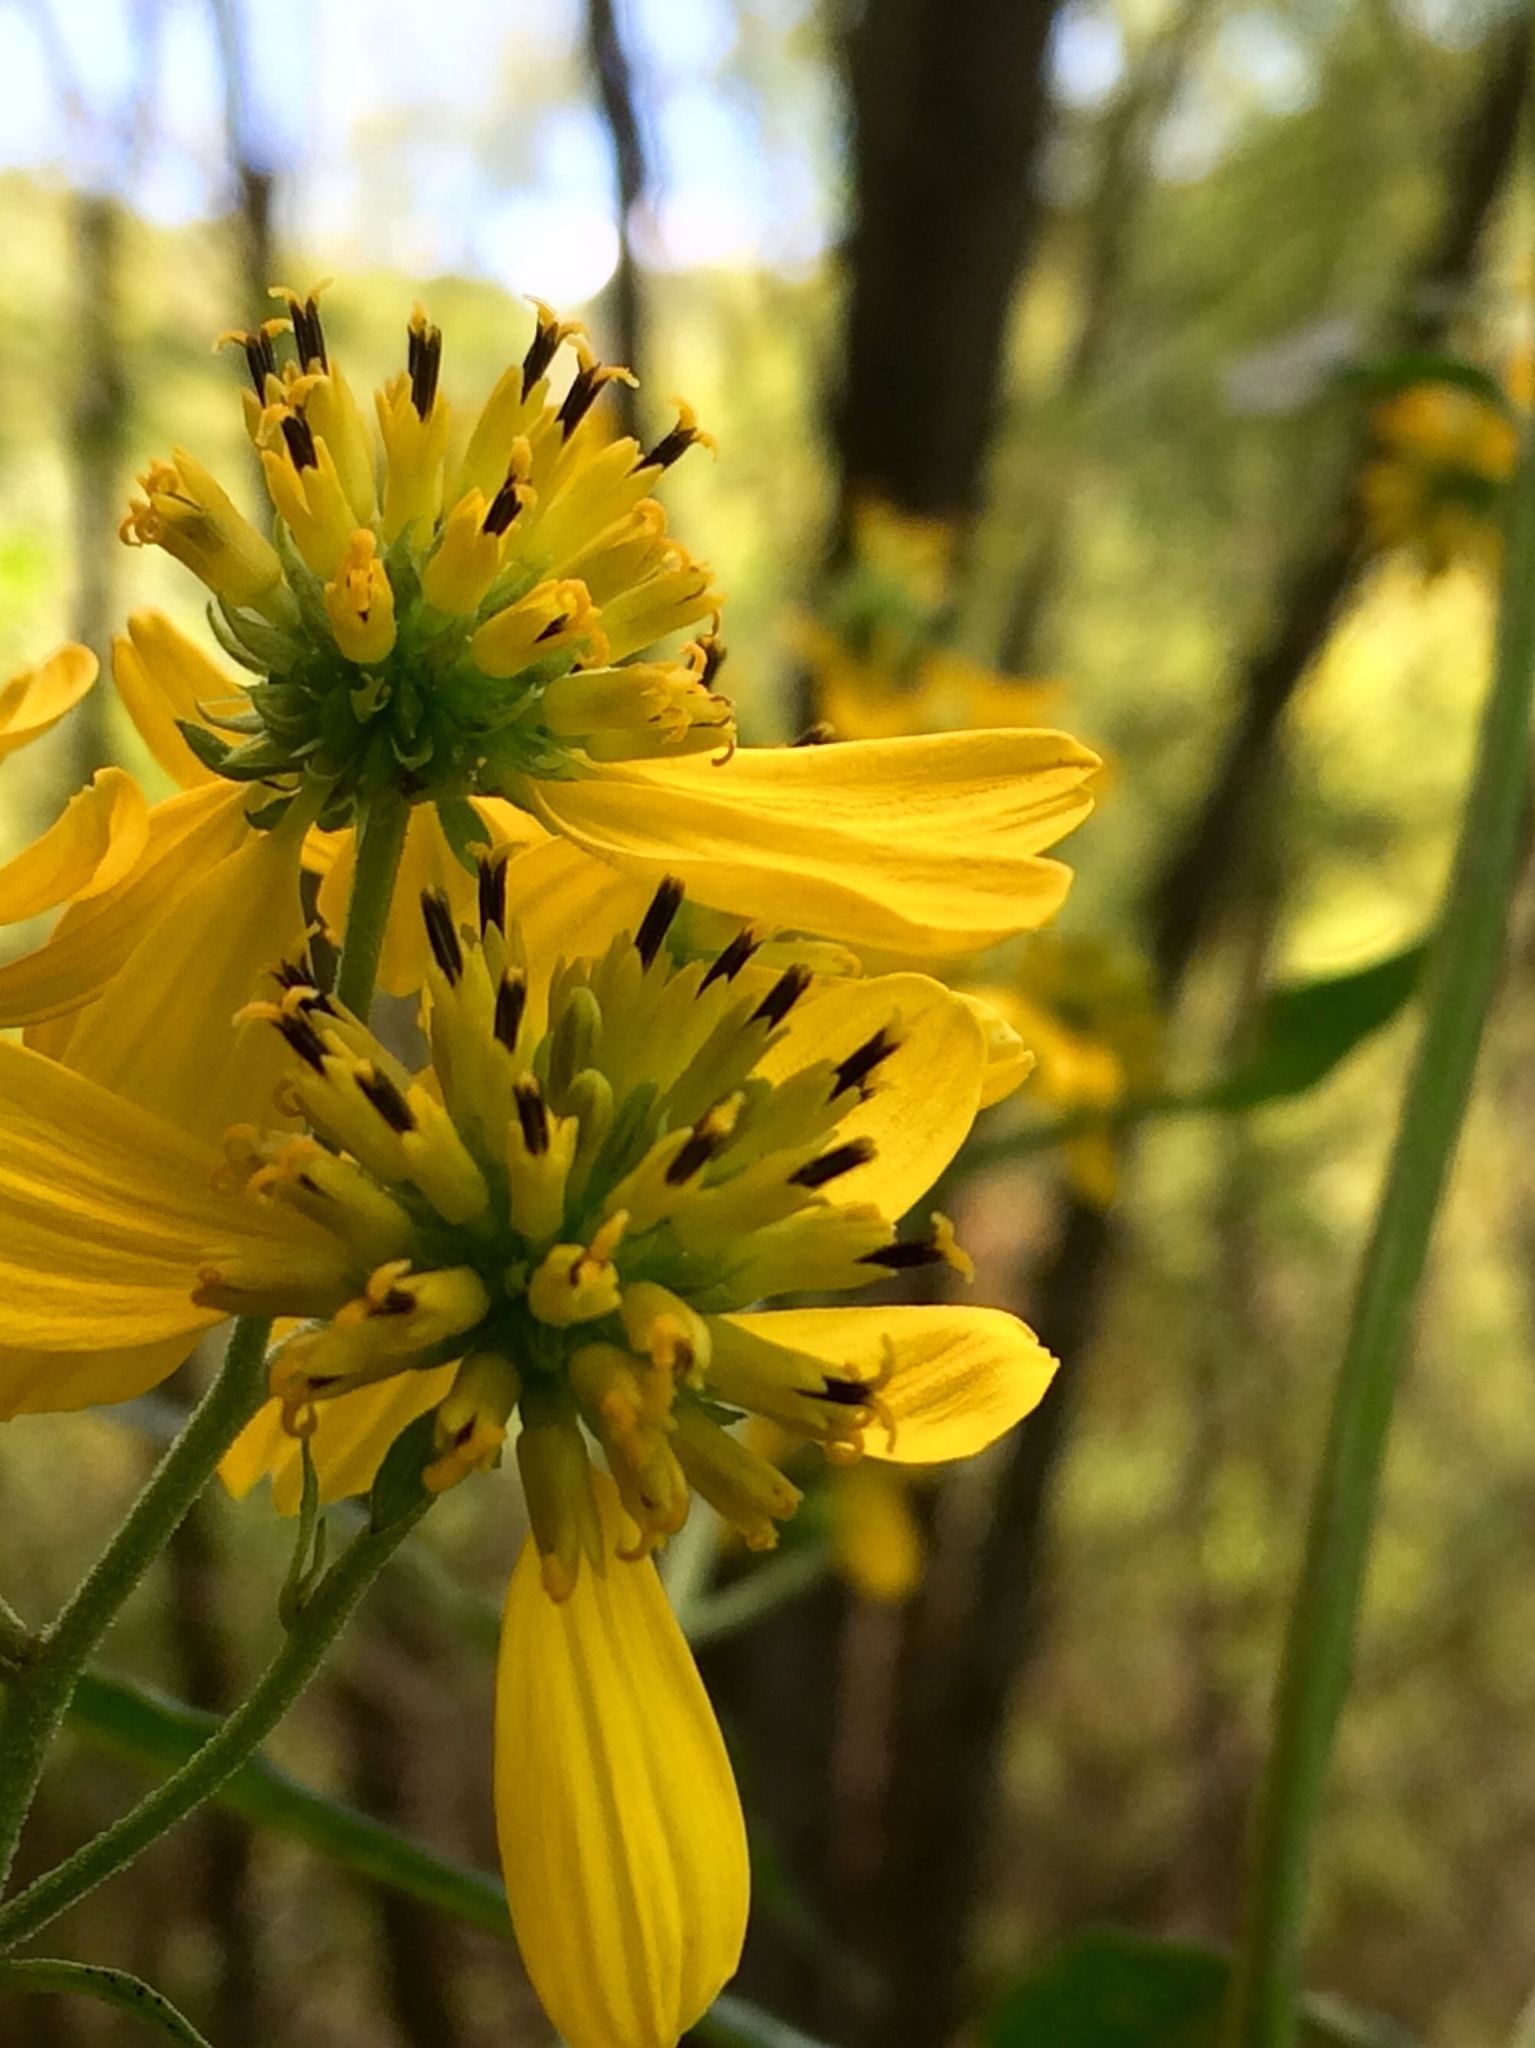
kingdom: Plantae
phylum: Tracheophyta
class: Magnoliopsida
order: Asterales
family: Asteraceae
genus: Verbesina
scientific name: Verbesina alternifolia
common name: Wingstem
